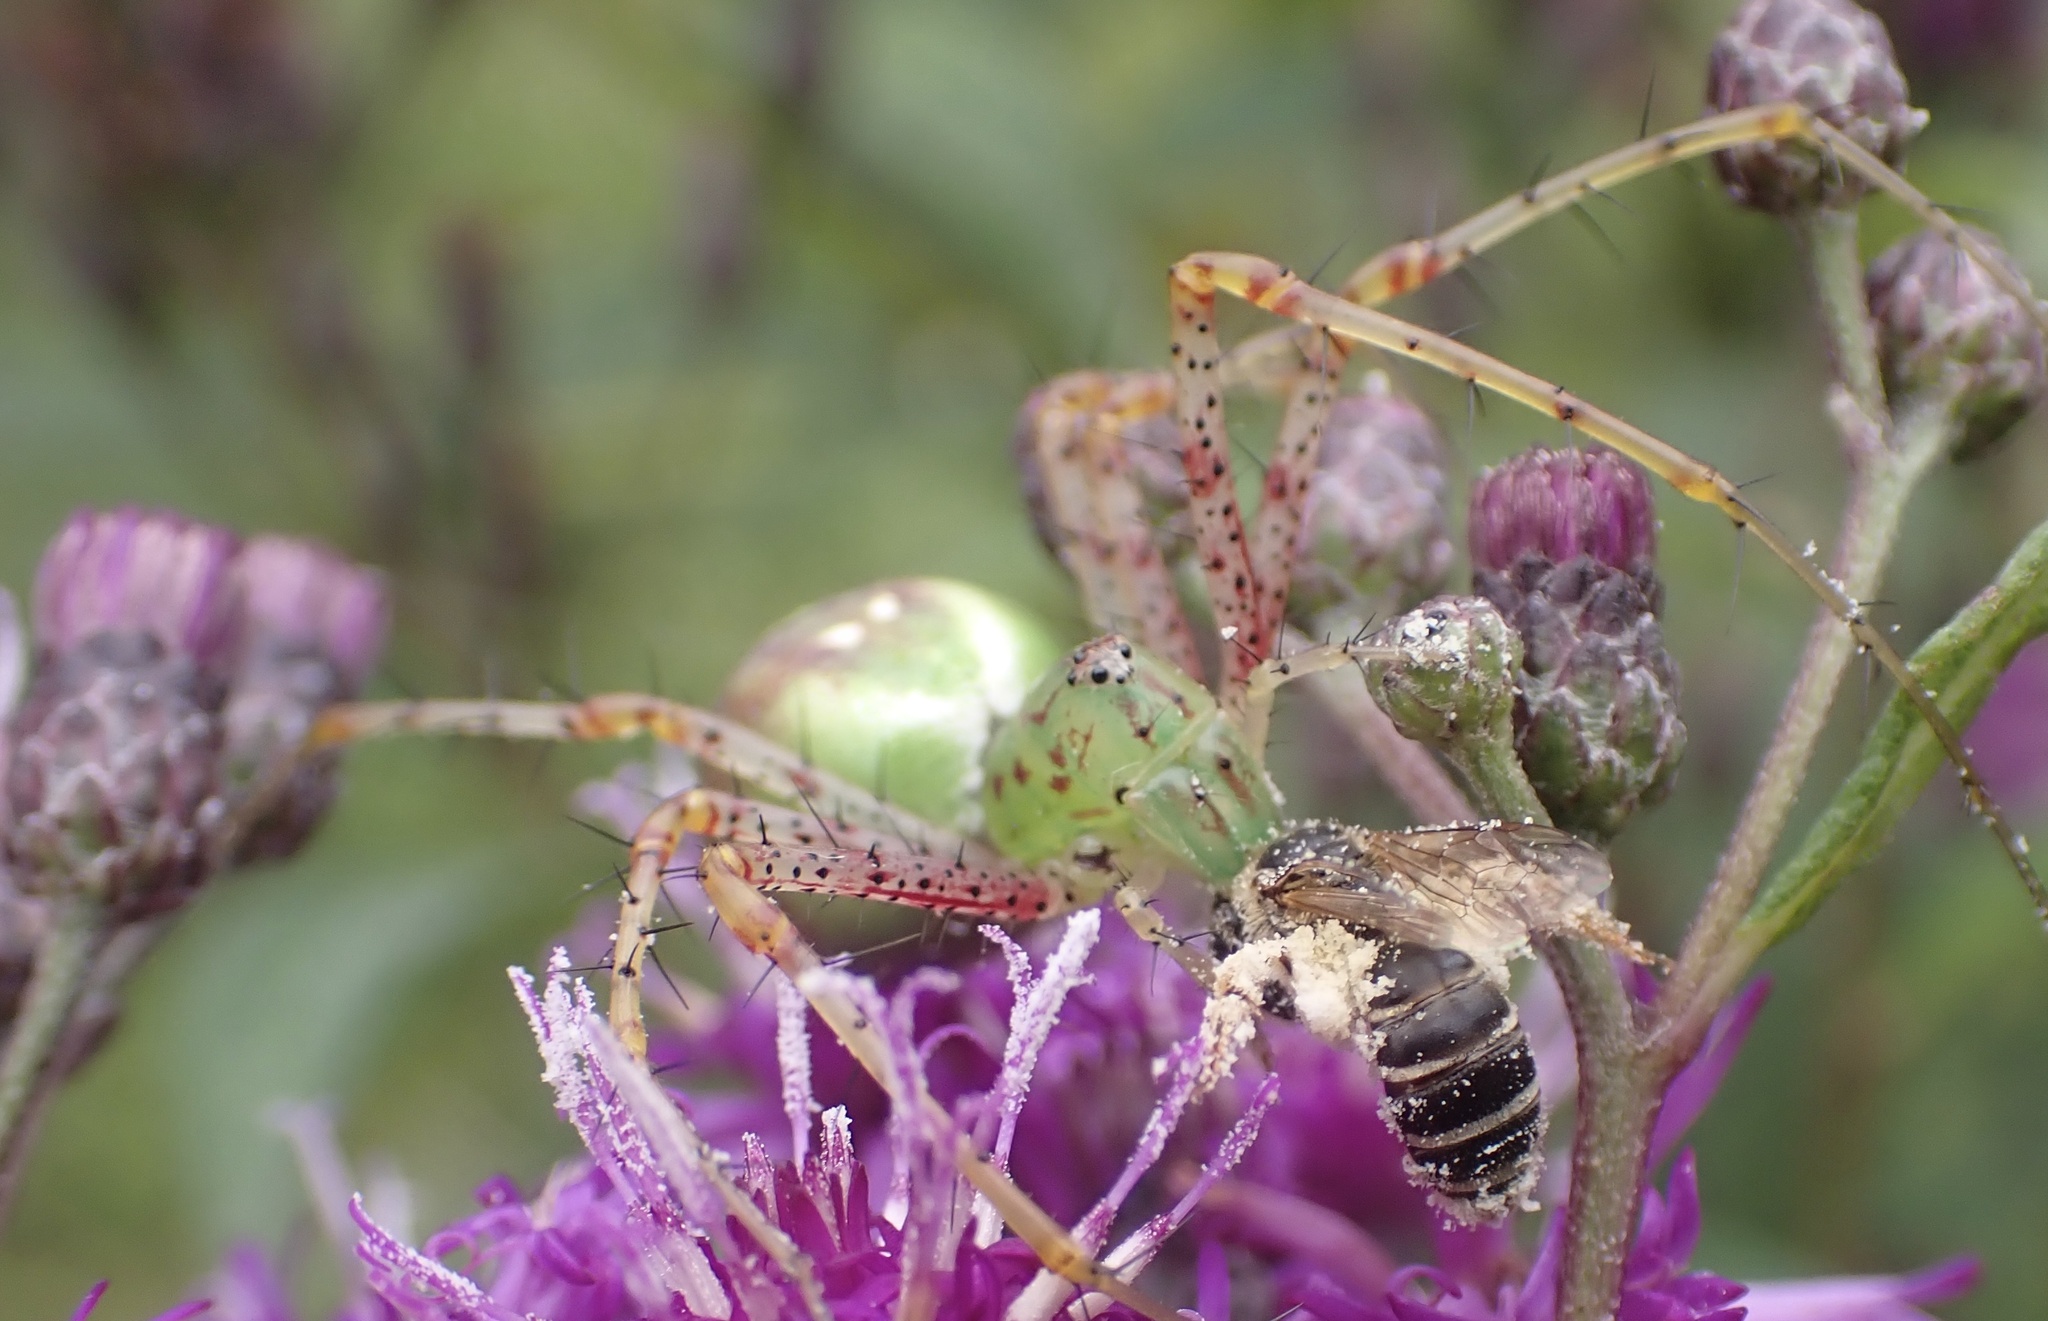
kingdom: Animalia
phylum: Arthropoda
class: Arachnida
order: Araneae
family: Oxyopidae
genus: Peucetia
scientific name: Peucetia viridans
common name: Lynx spiders
